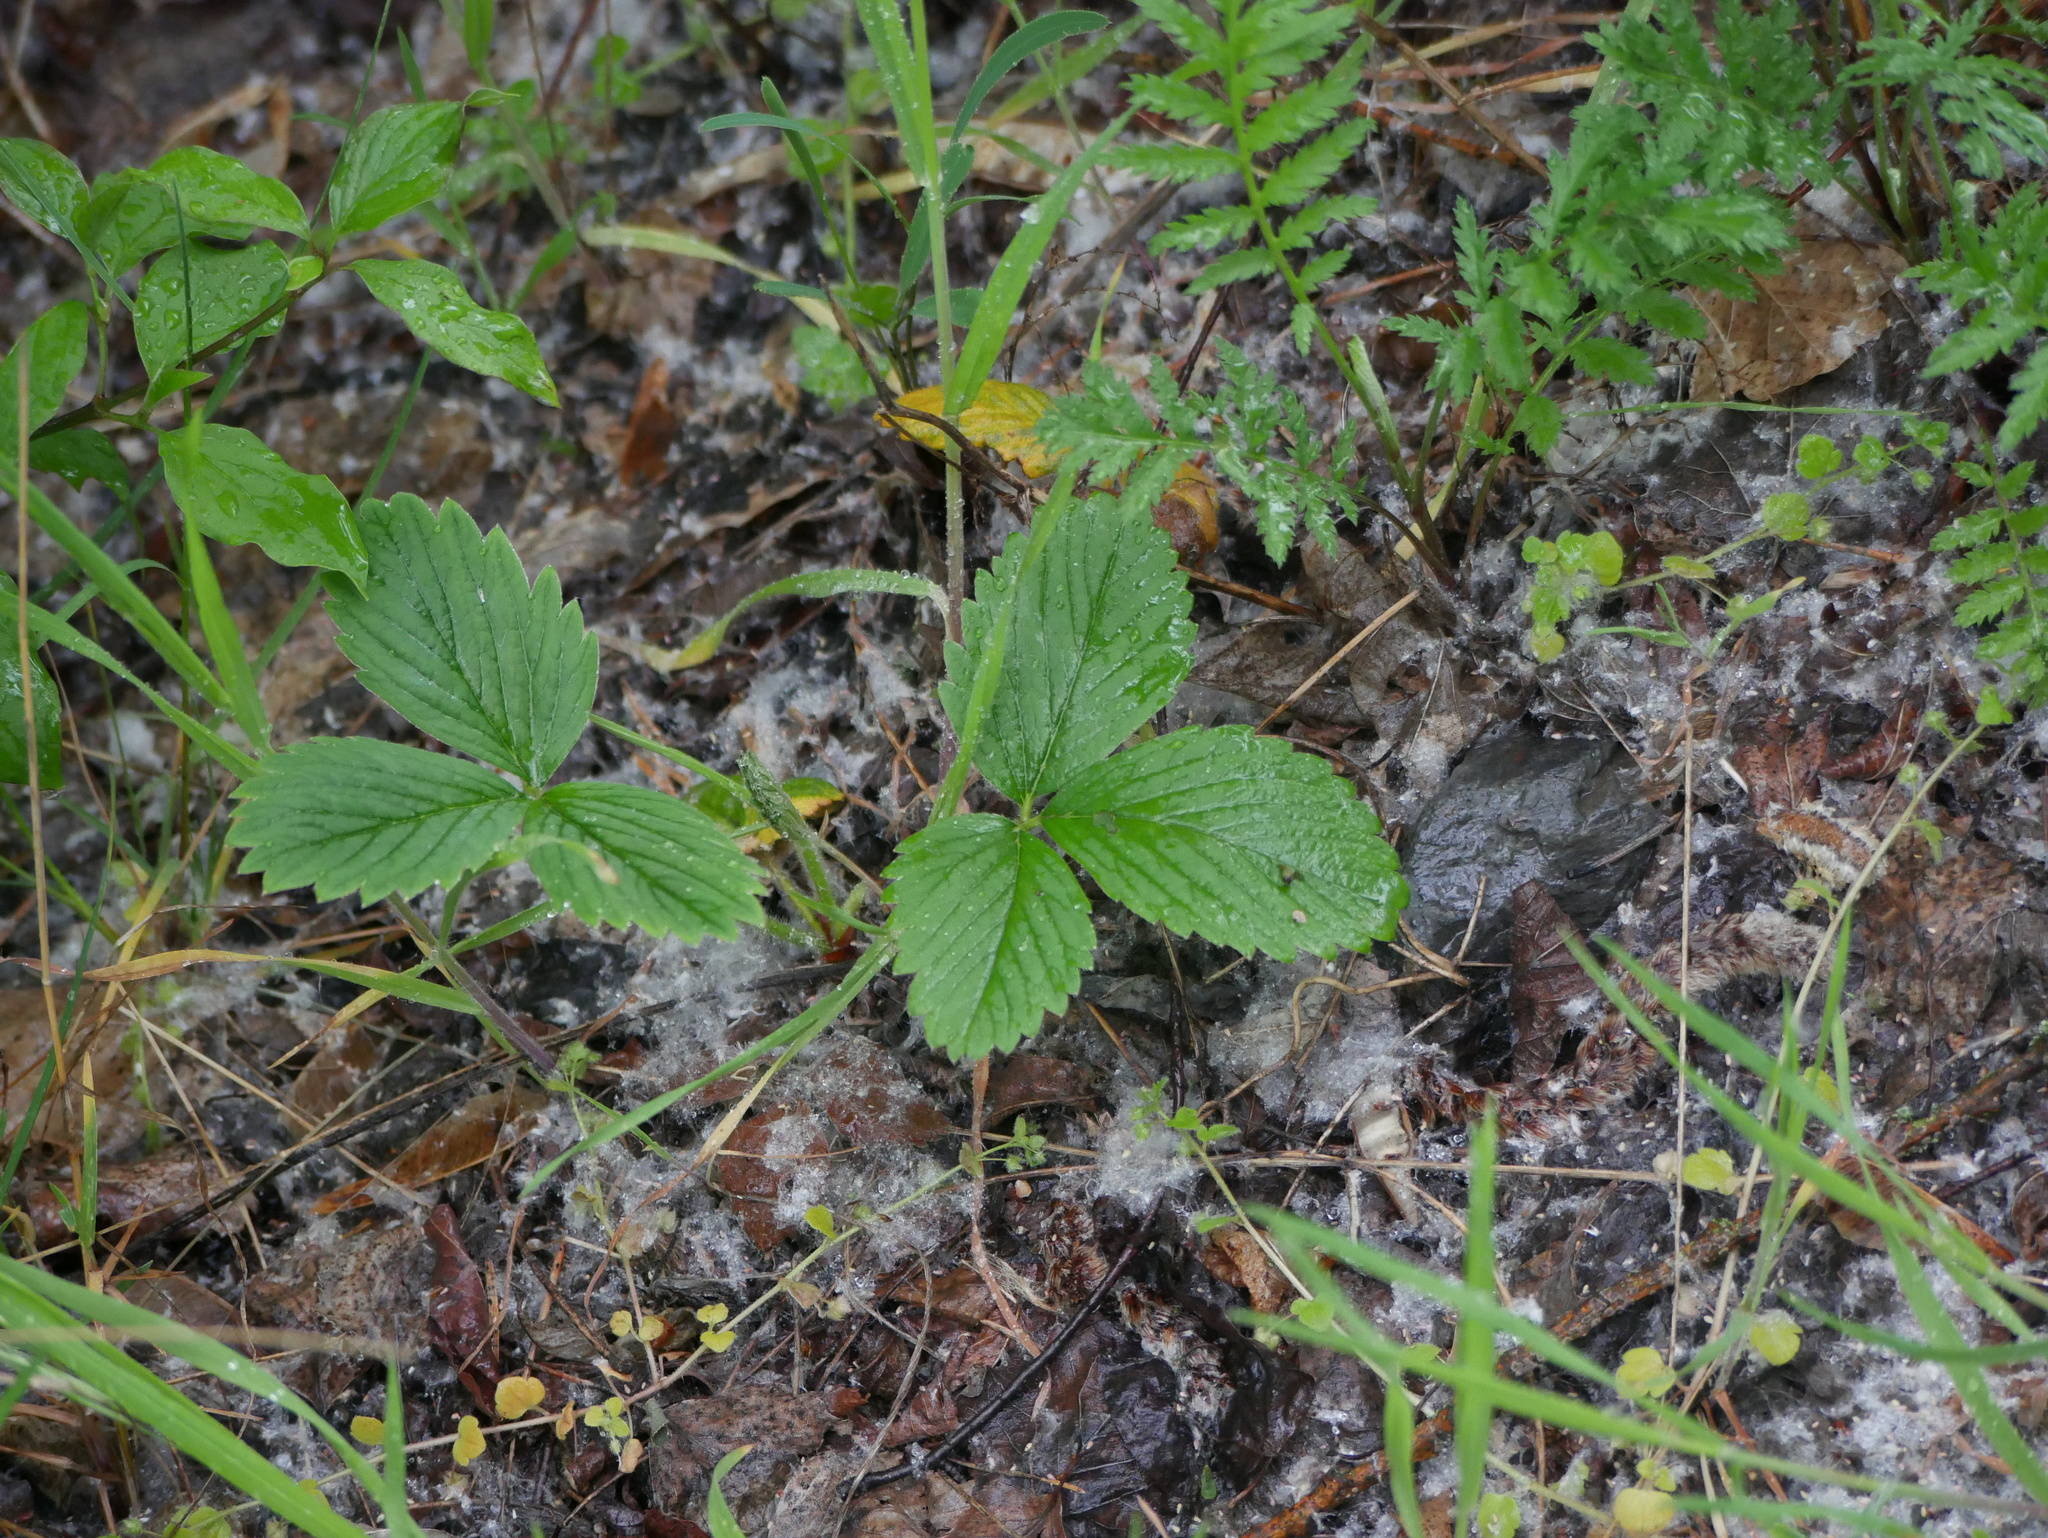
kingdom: Plantae
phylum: Tracheophyta
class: Magnoliopsida
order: Rosales
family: Rosaceae
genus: Fragaria
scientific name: Fragaria vesca
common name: Wild strawberry
